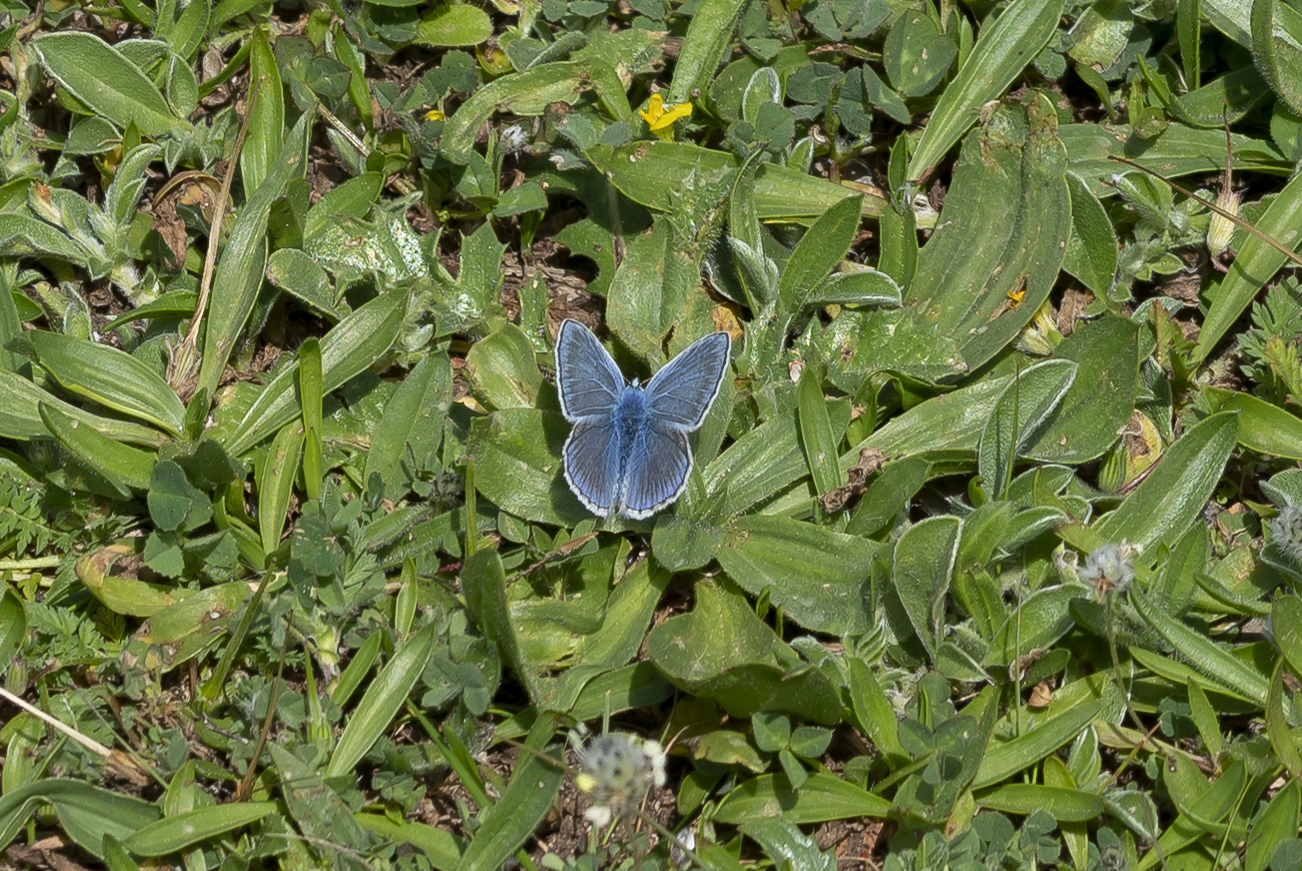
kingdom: Animalia
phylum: Arthropoda
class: Insecta
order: Lepidoptera
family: Lycaenidae
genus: Polyommatus
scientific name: Polyommatus icarus
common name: Common blue
